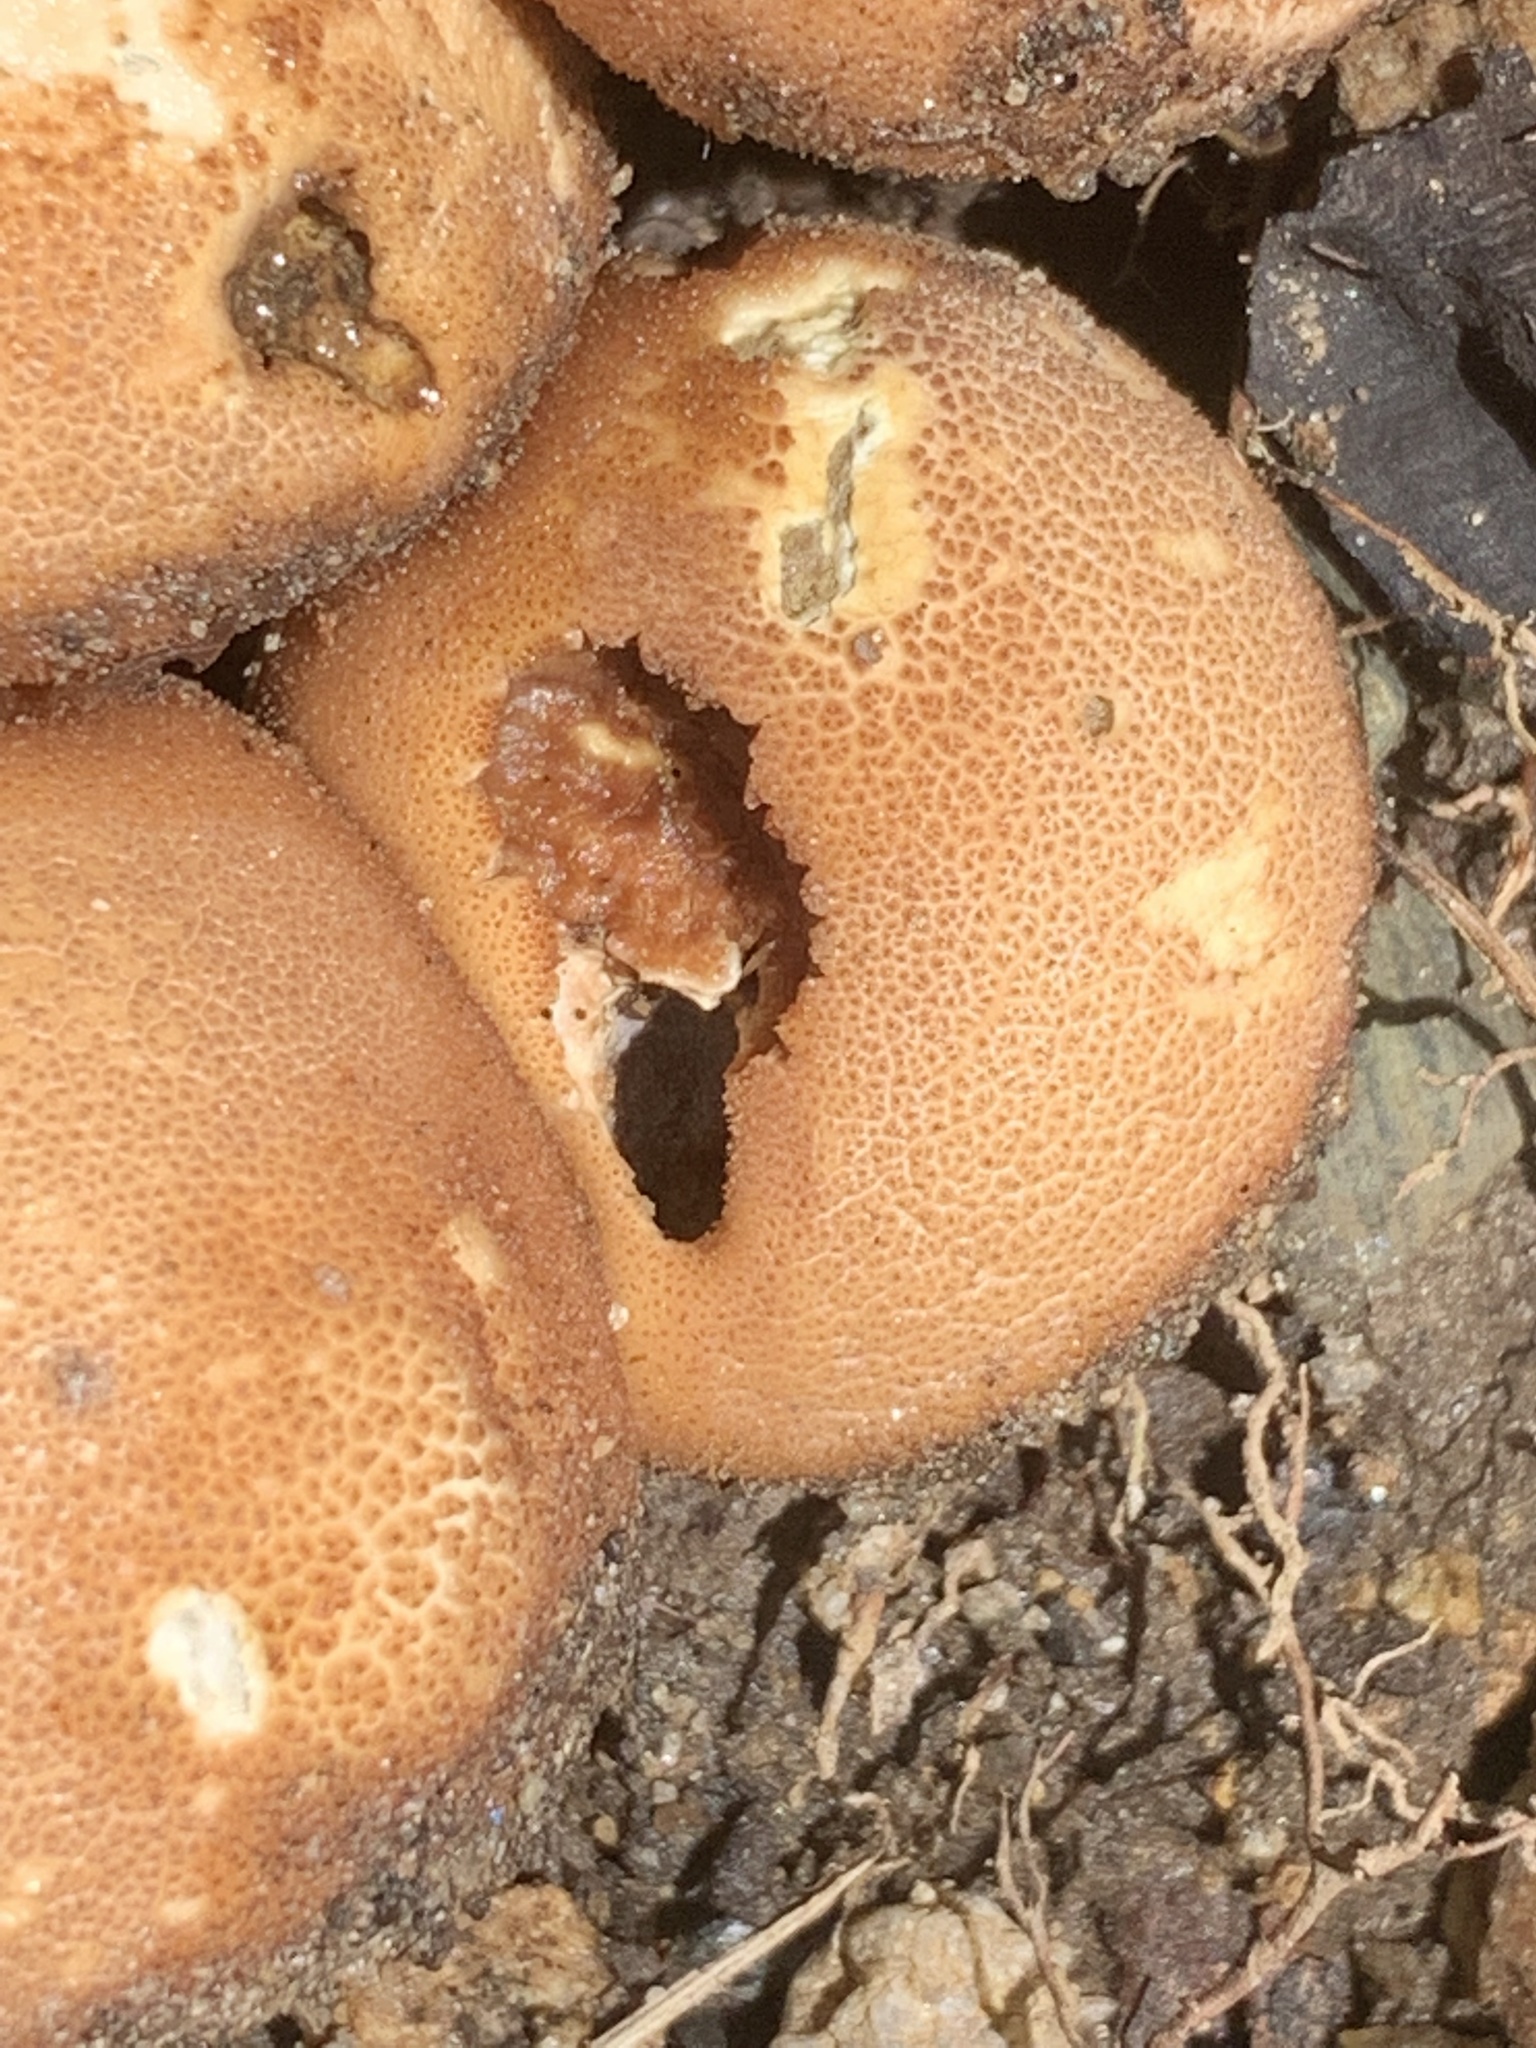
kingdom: Fungi
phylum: Basidiomycota
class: Agaricomycetes
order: Agaricales
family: Lycoperdaceae
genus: Apioperdon
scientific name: Apioperdon pyriforme
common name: Pear-shaped puffball
